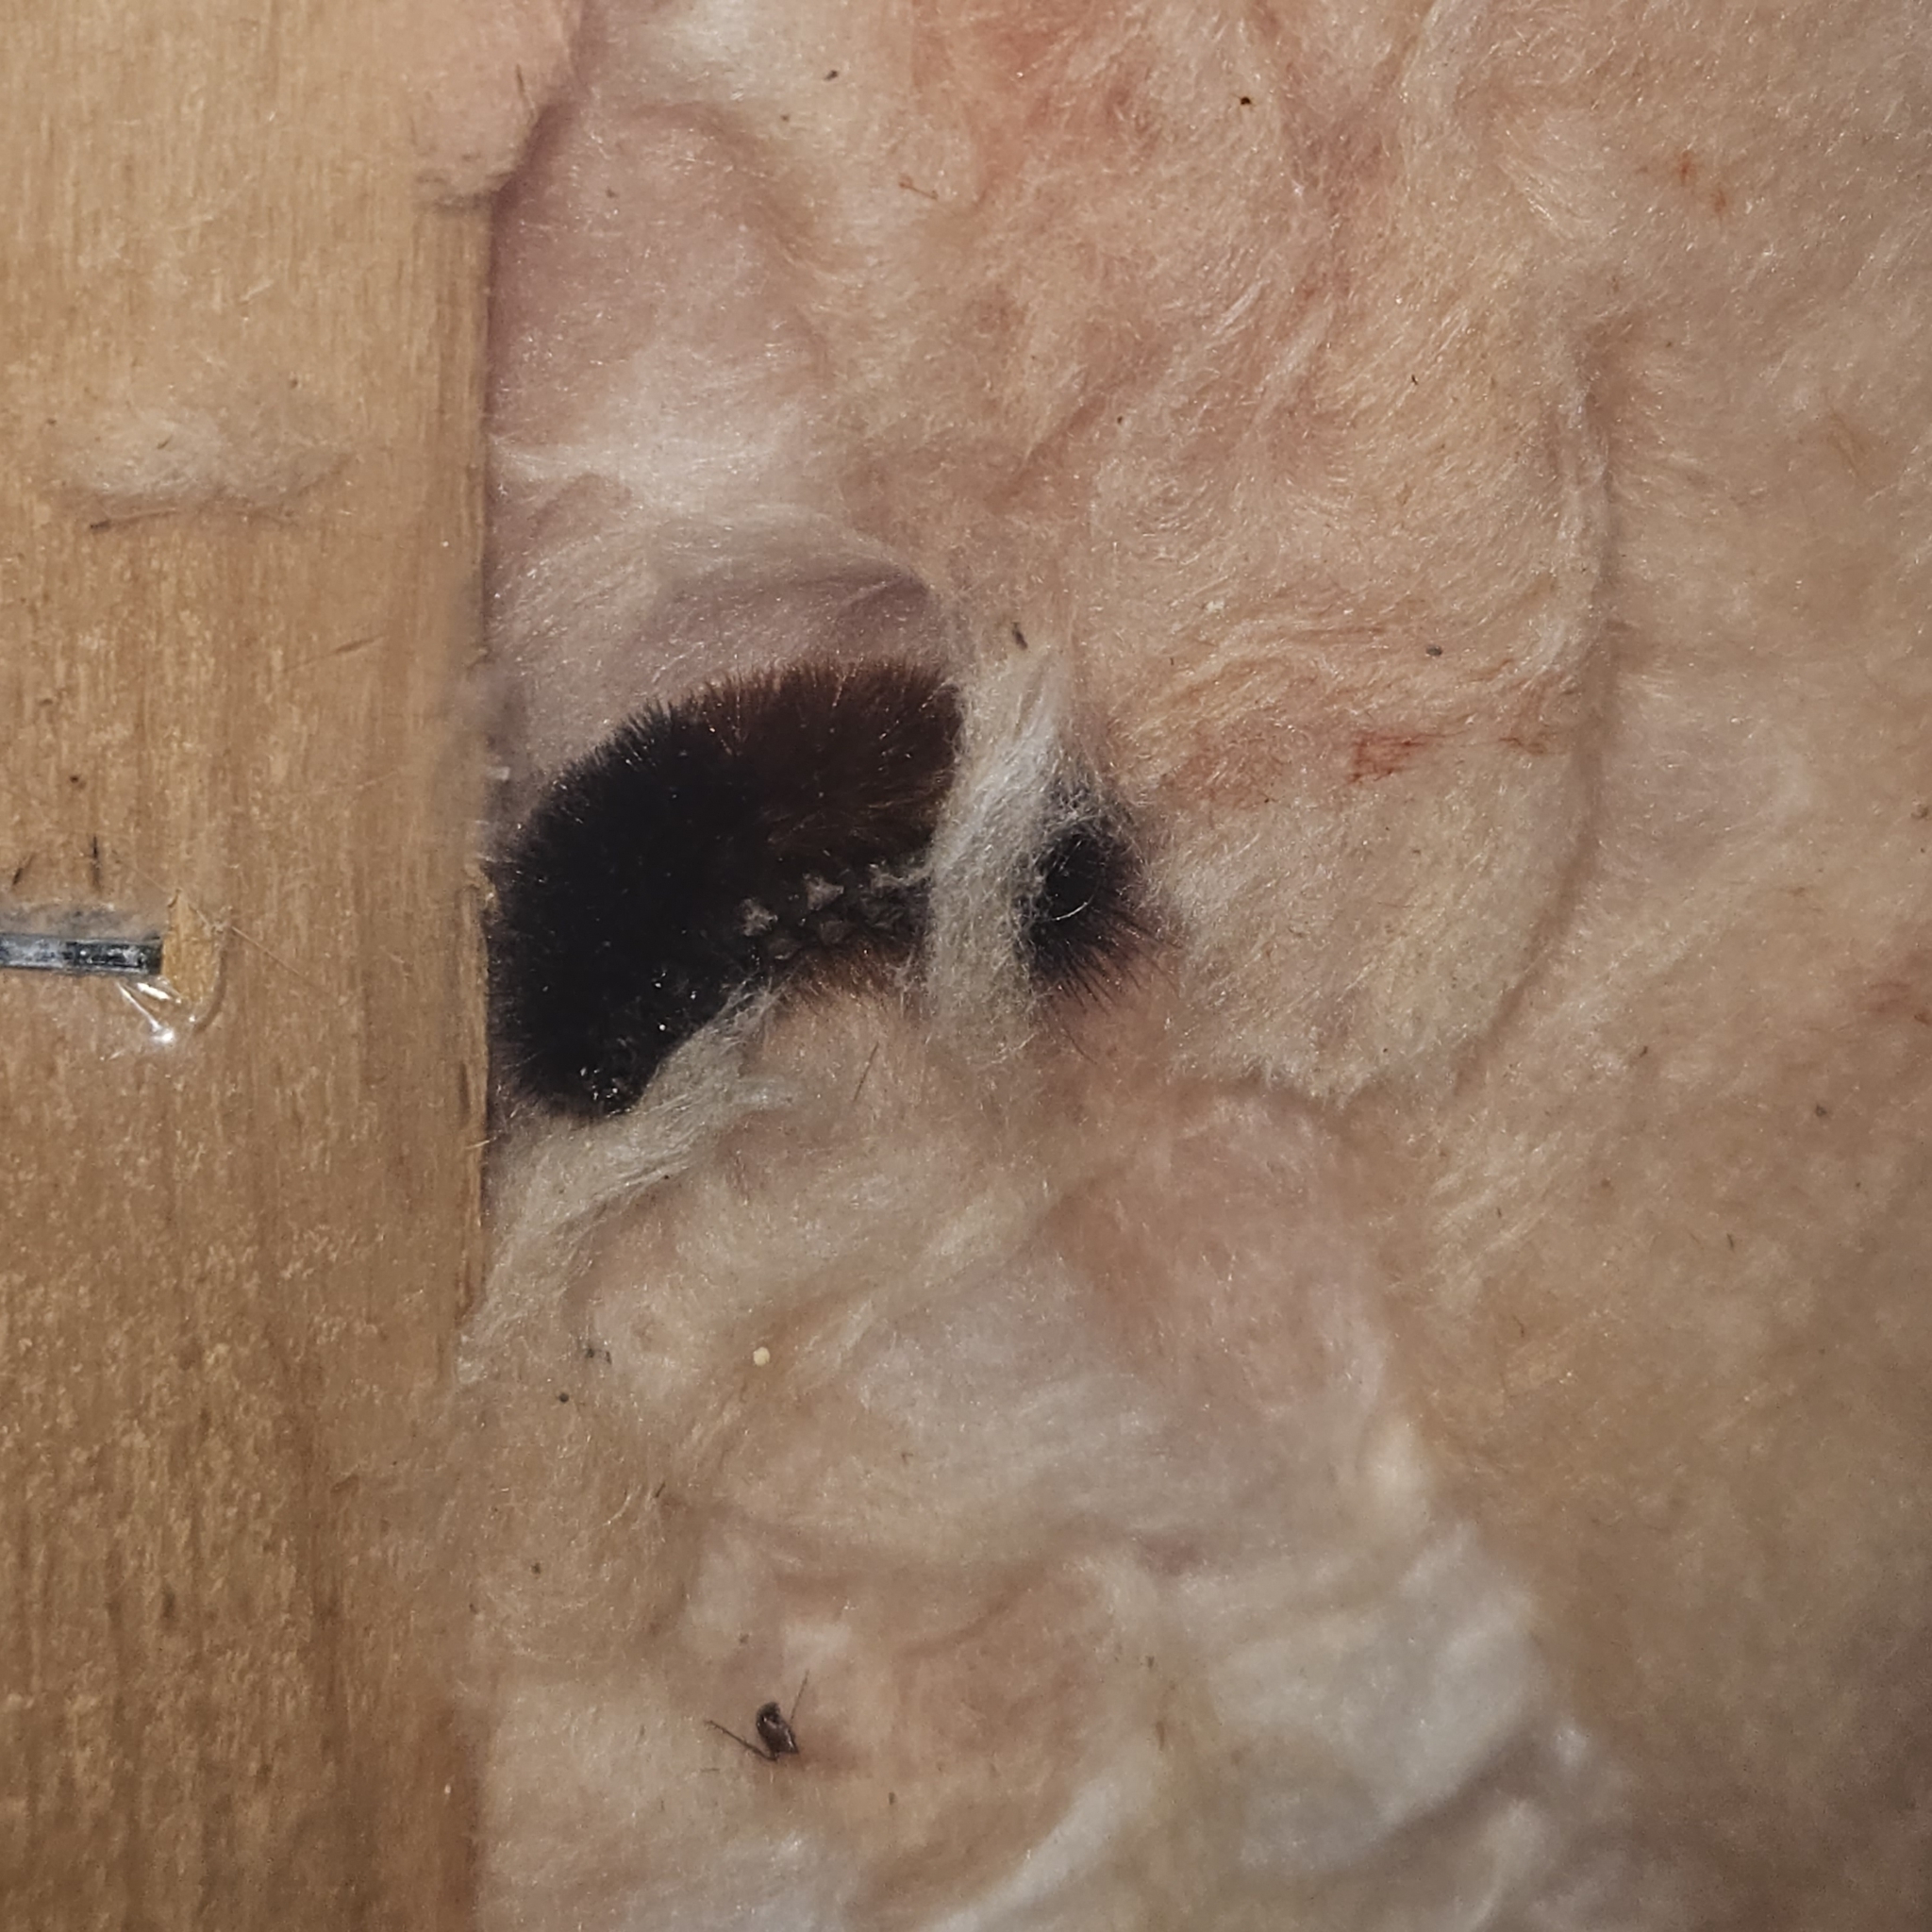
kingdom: Animalia
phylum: Arthropoda
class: Insecta
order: Lepidoptera
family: Erebidae
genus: Pyrrharctia
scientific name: Pyrrharctia isabella
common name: Isabella tiger moth
